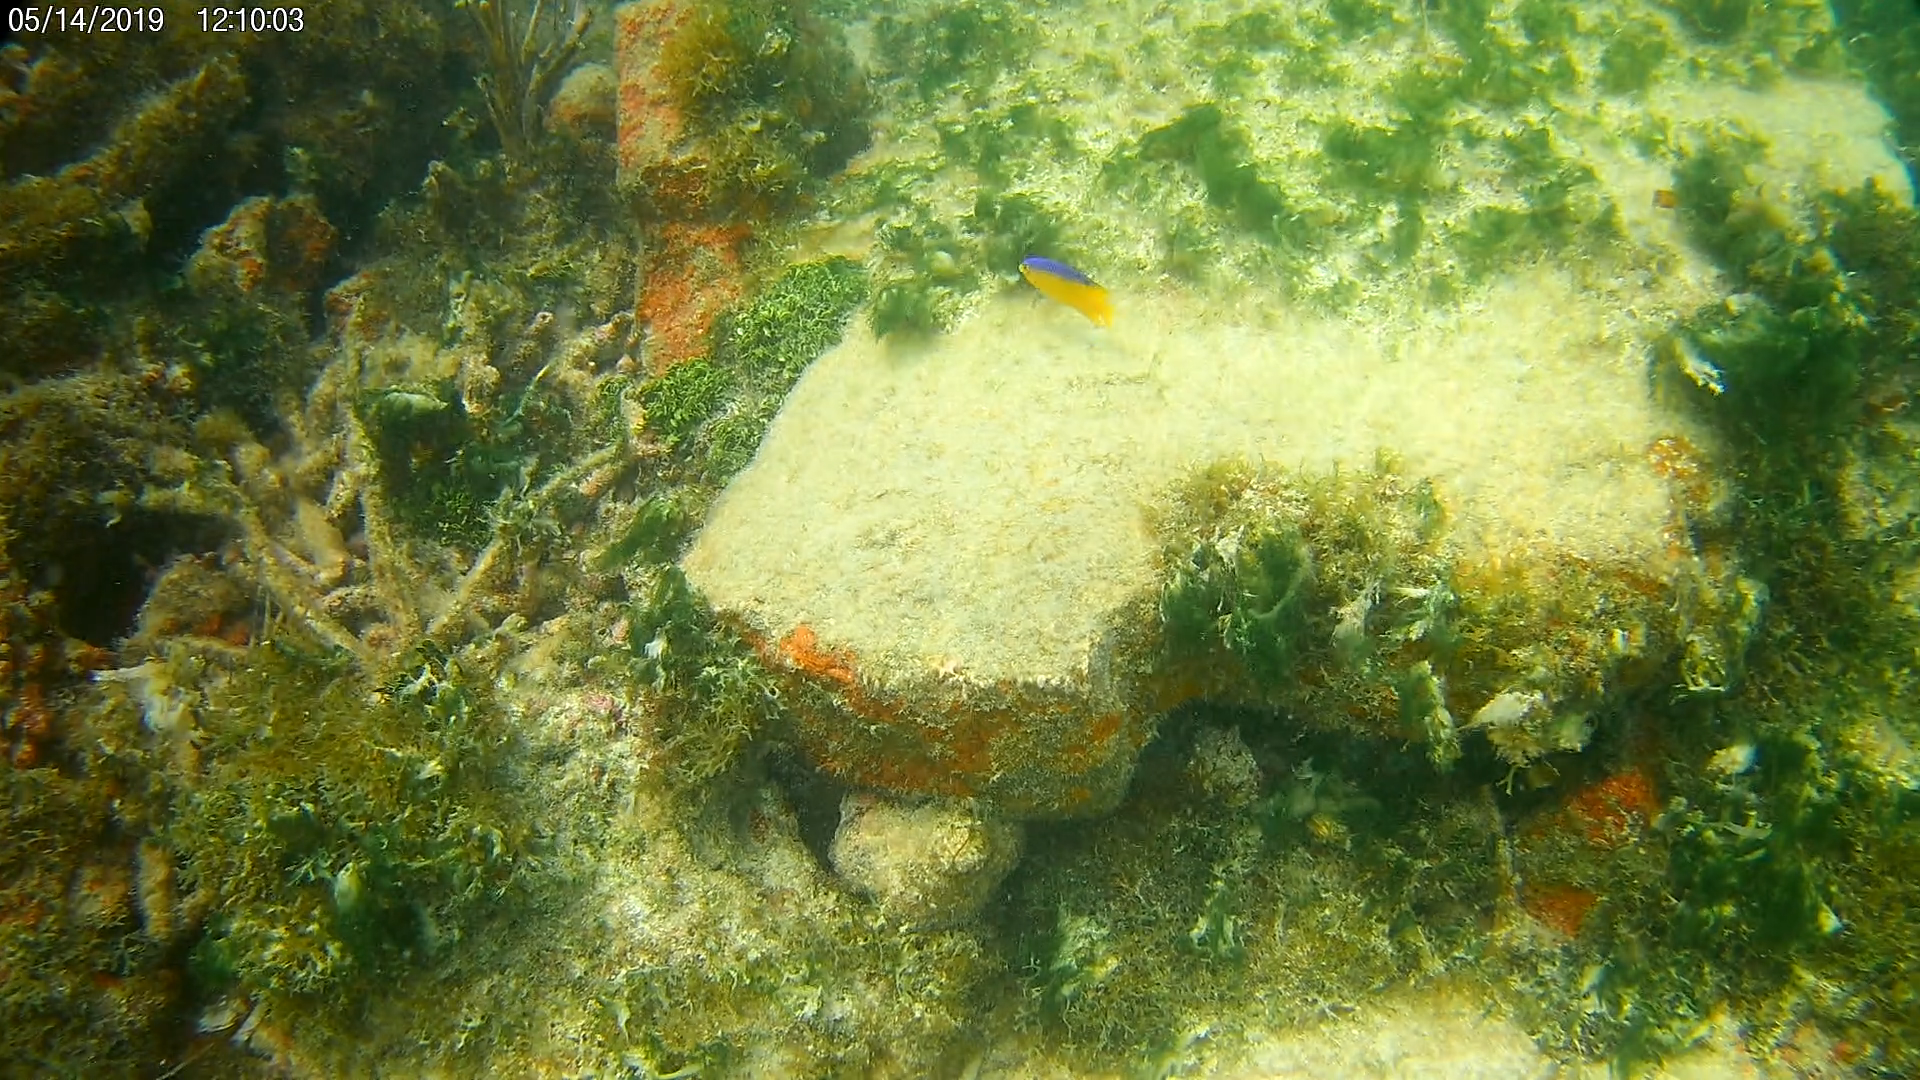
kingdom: Animalia
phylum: Chordata
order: Perciformes
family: Pomacentridae
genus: Stegastes
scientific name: Stegastes leucostictus
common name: Beaugregory
